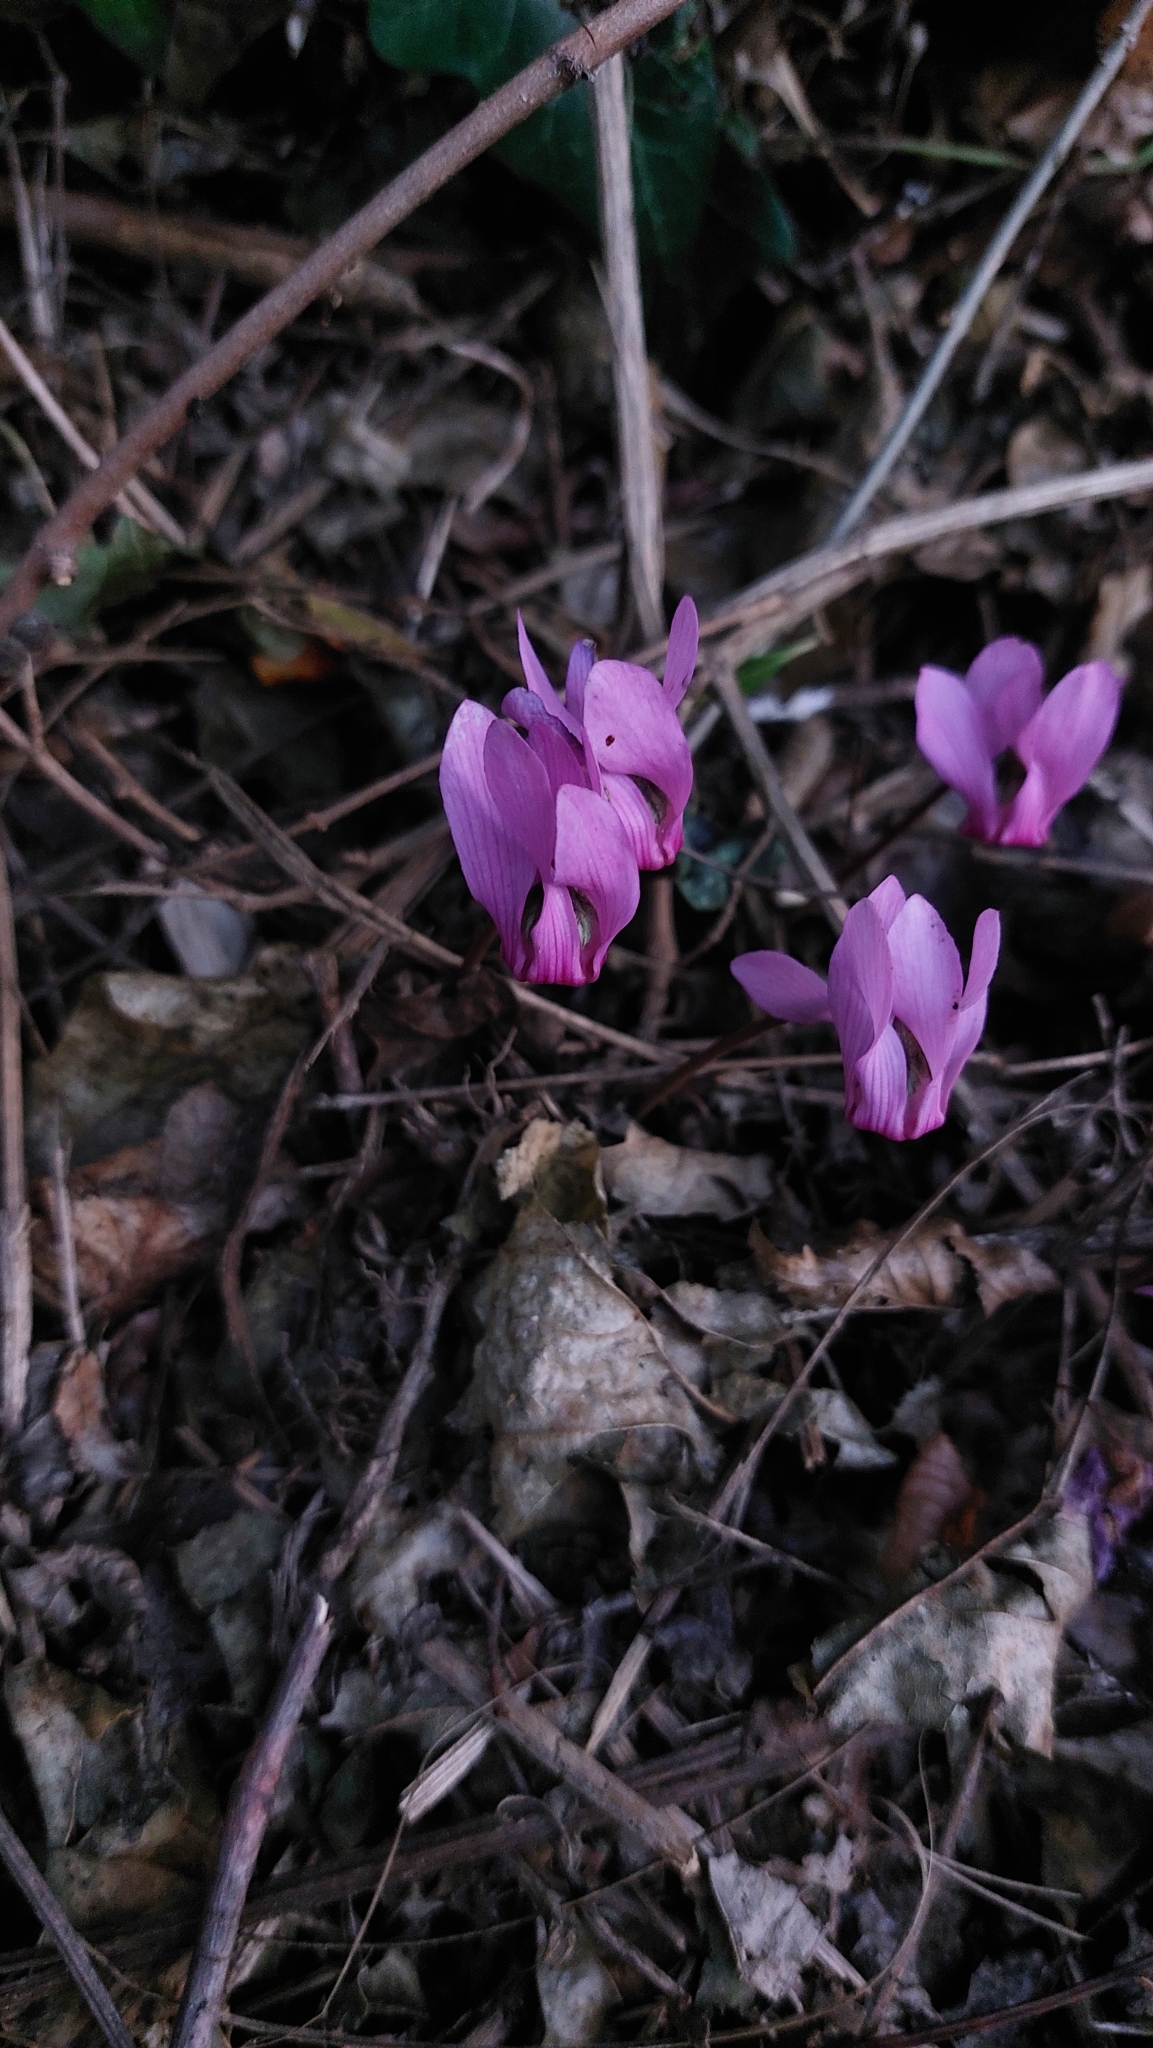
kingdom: Plantae
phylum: Tracheophyta
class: Magnoliopsida
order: Ericales
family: Primulaceae
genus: Cyclamen
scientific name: Cyclamen purpurascens
